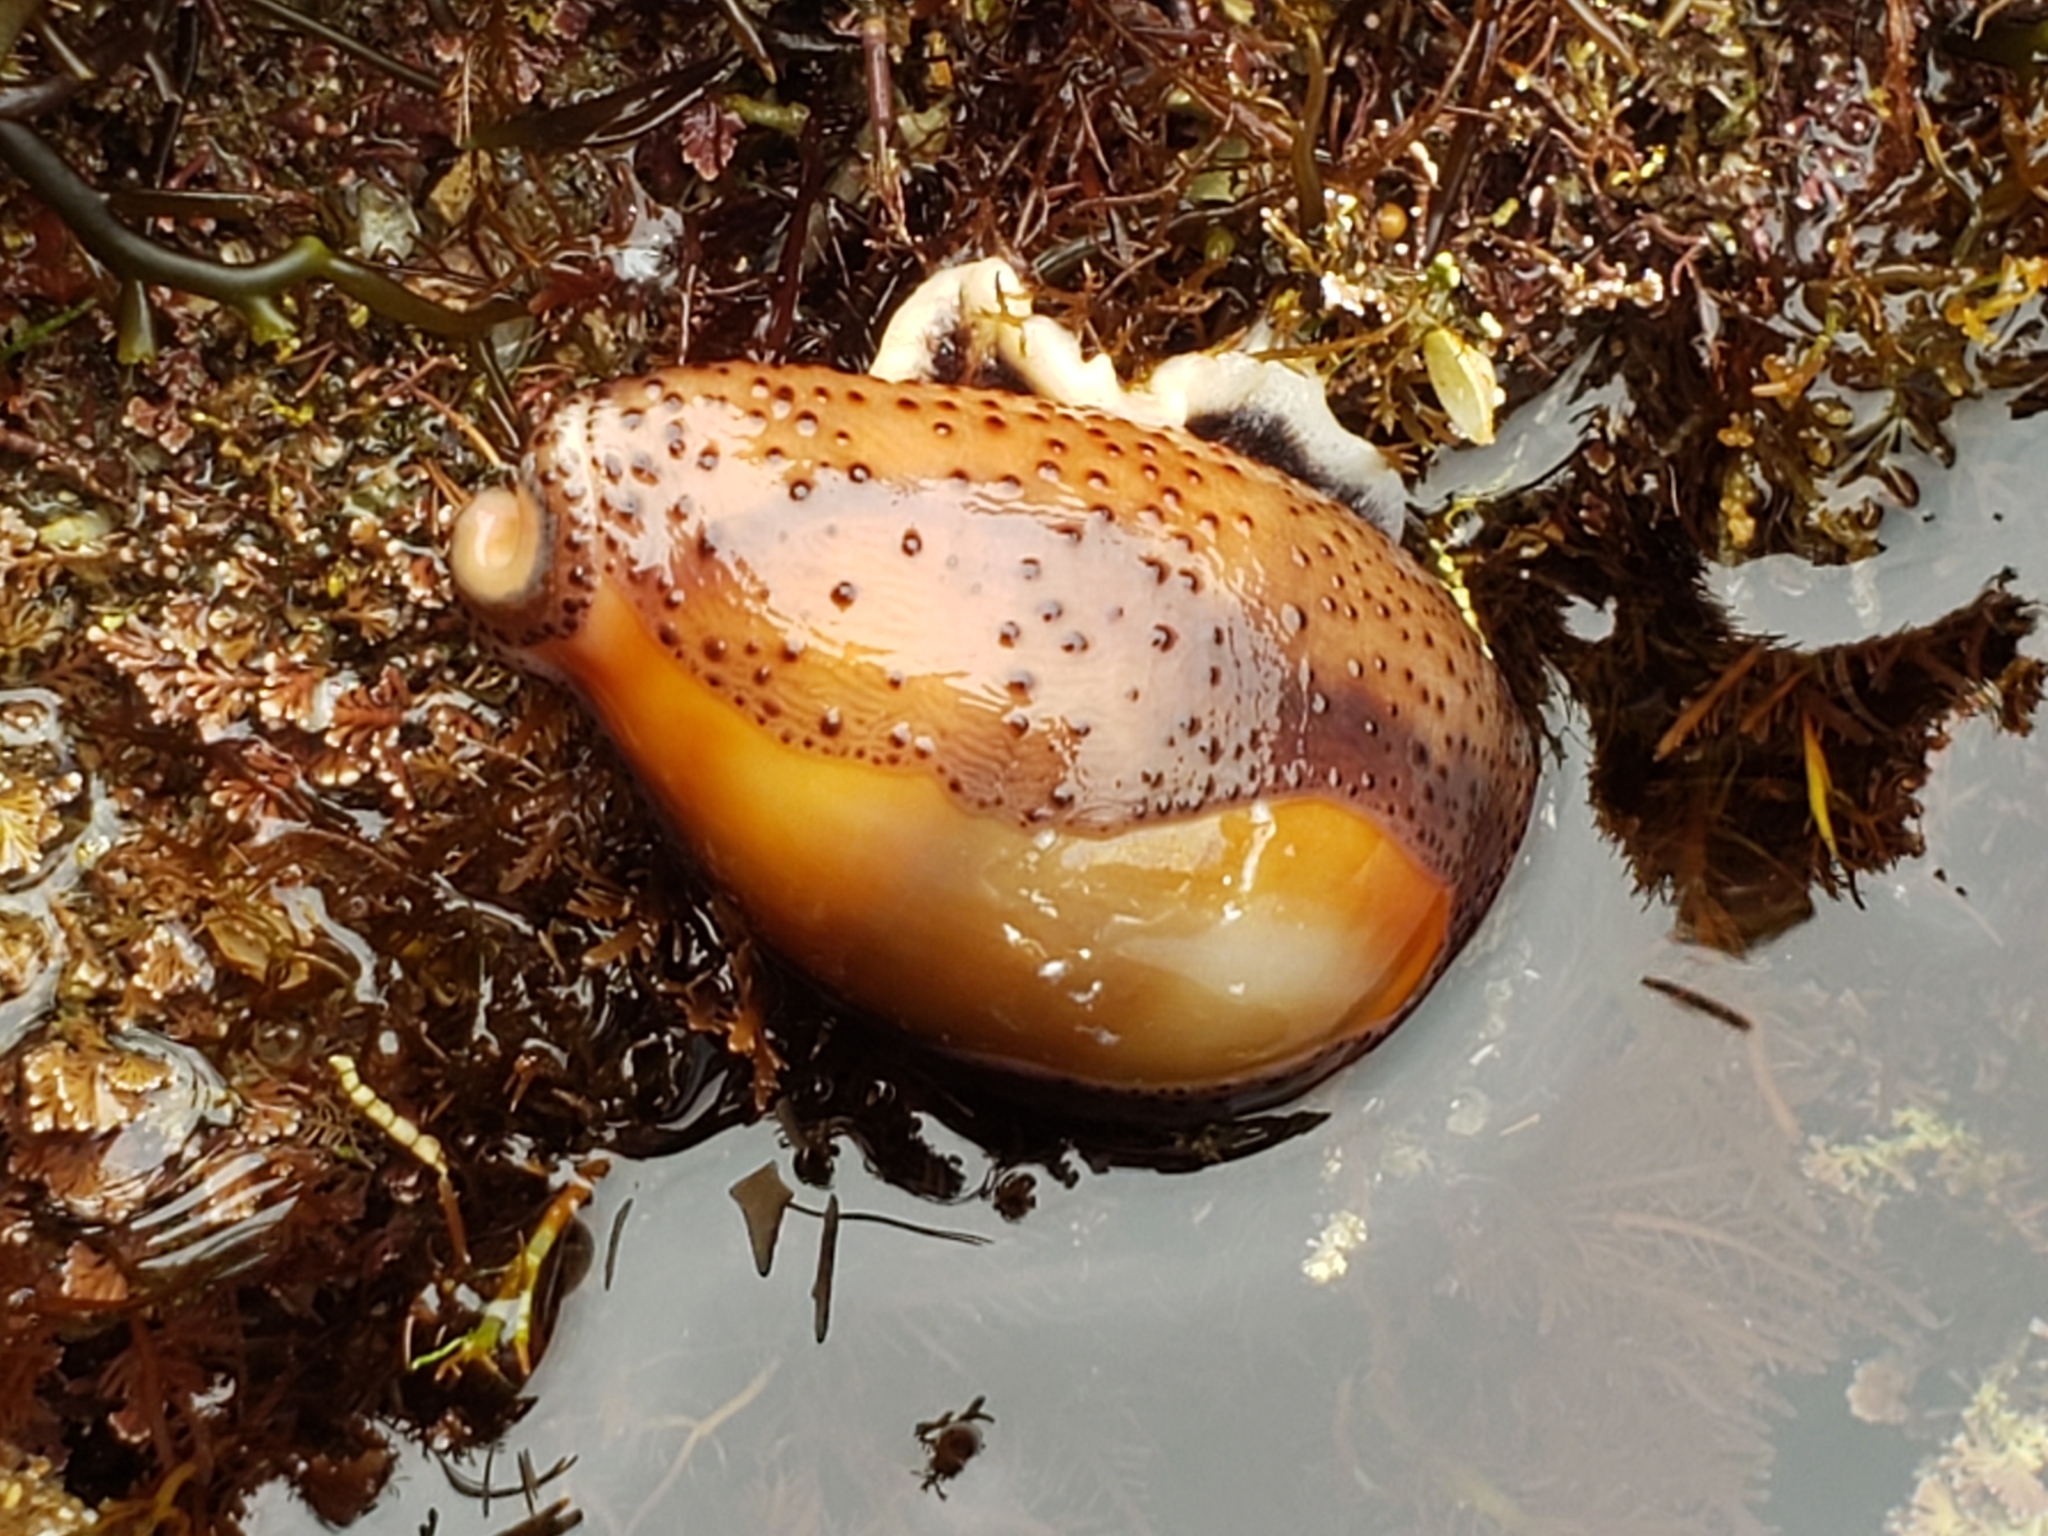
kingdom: Animalia
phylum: Mollusca
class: Gastropoda
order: Littorinimorpha
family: Cypraeidae
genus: Neobernaya
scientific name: Neobernaya spadicea
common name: Chestnut cowrie
